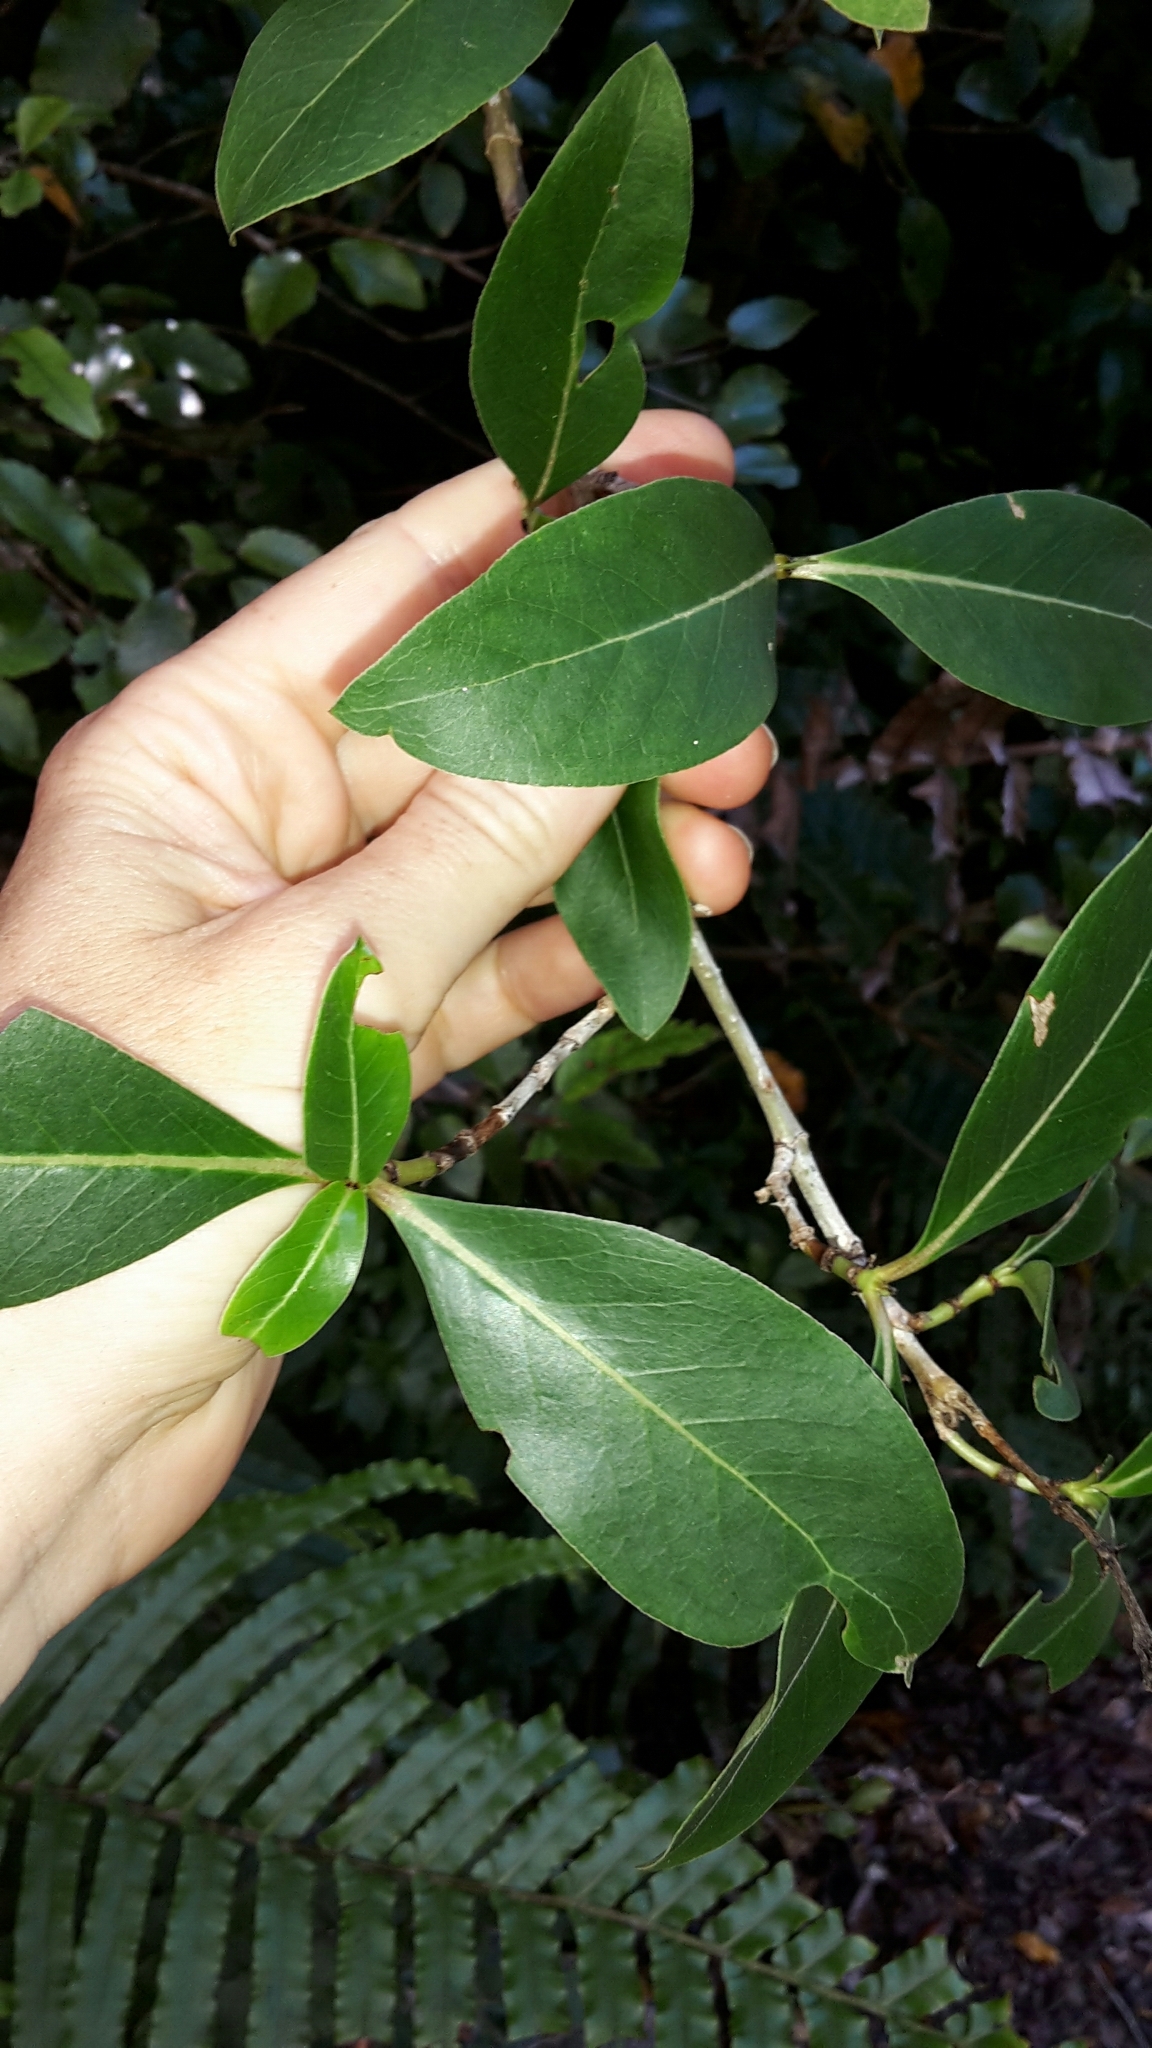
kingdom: Plantae
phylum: Tracheophyta
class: Magnoliopsida
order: Gentianales
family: Rubiaceae
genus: Coprosma
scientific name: Coprosma robusta
